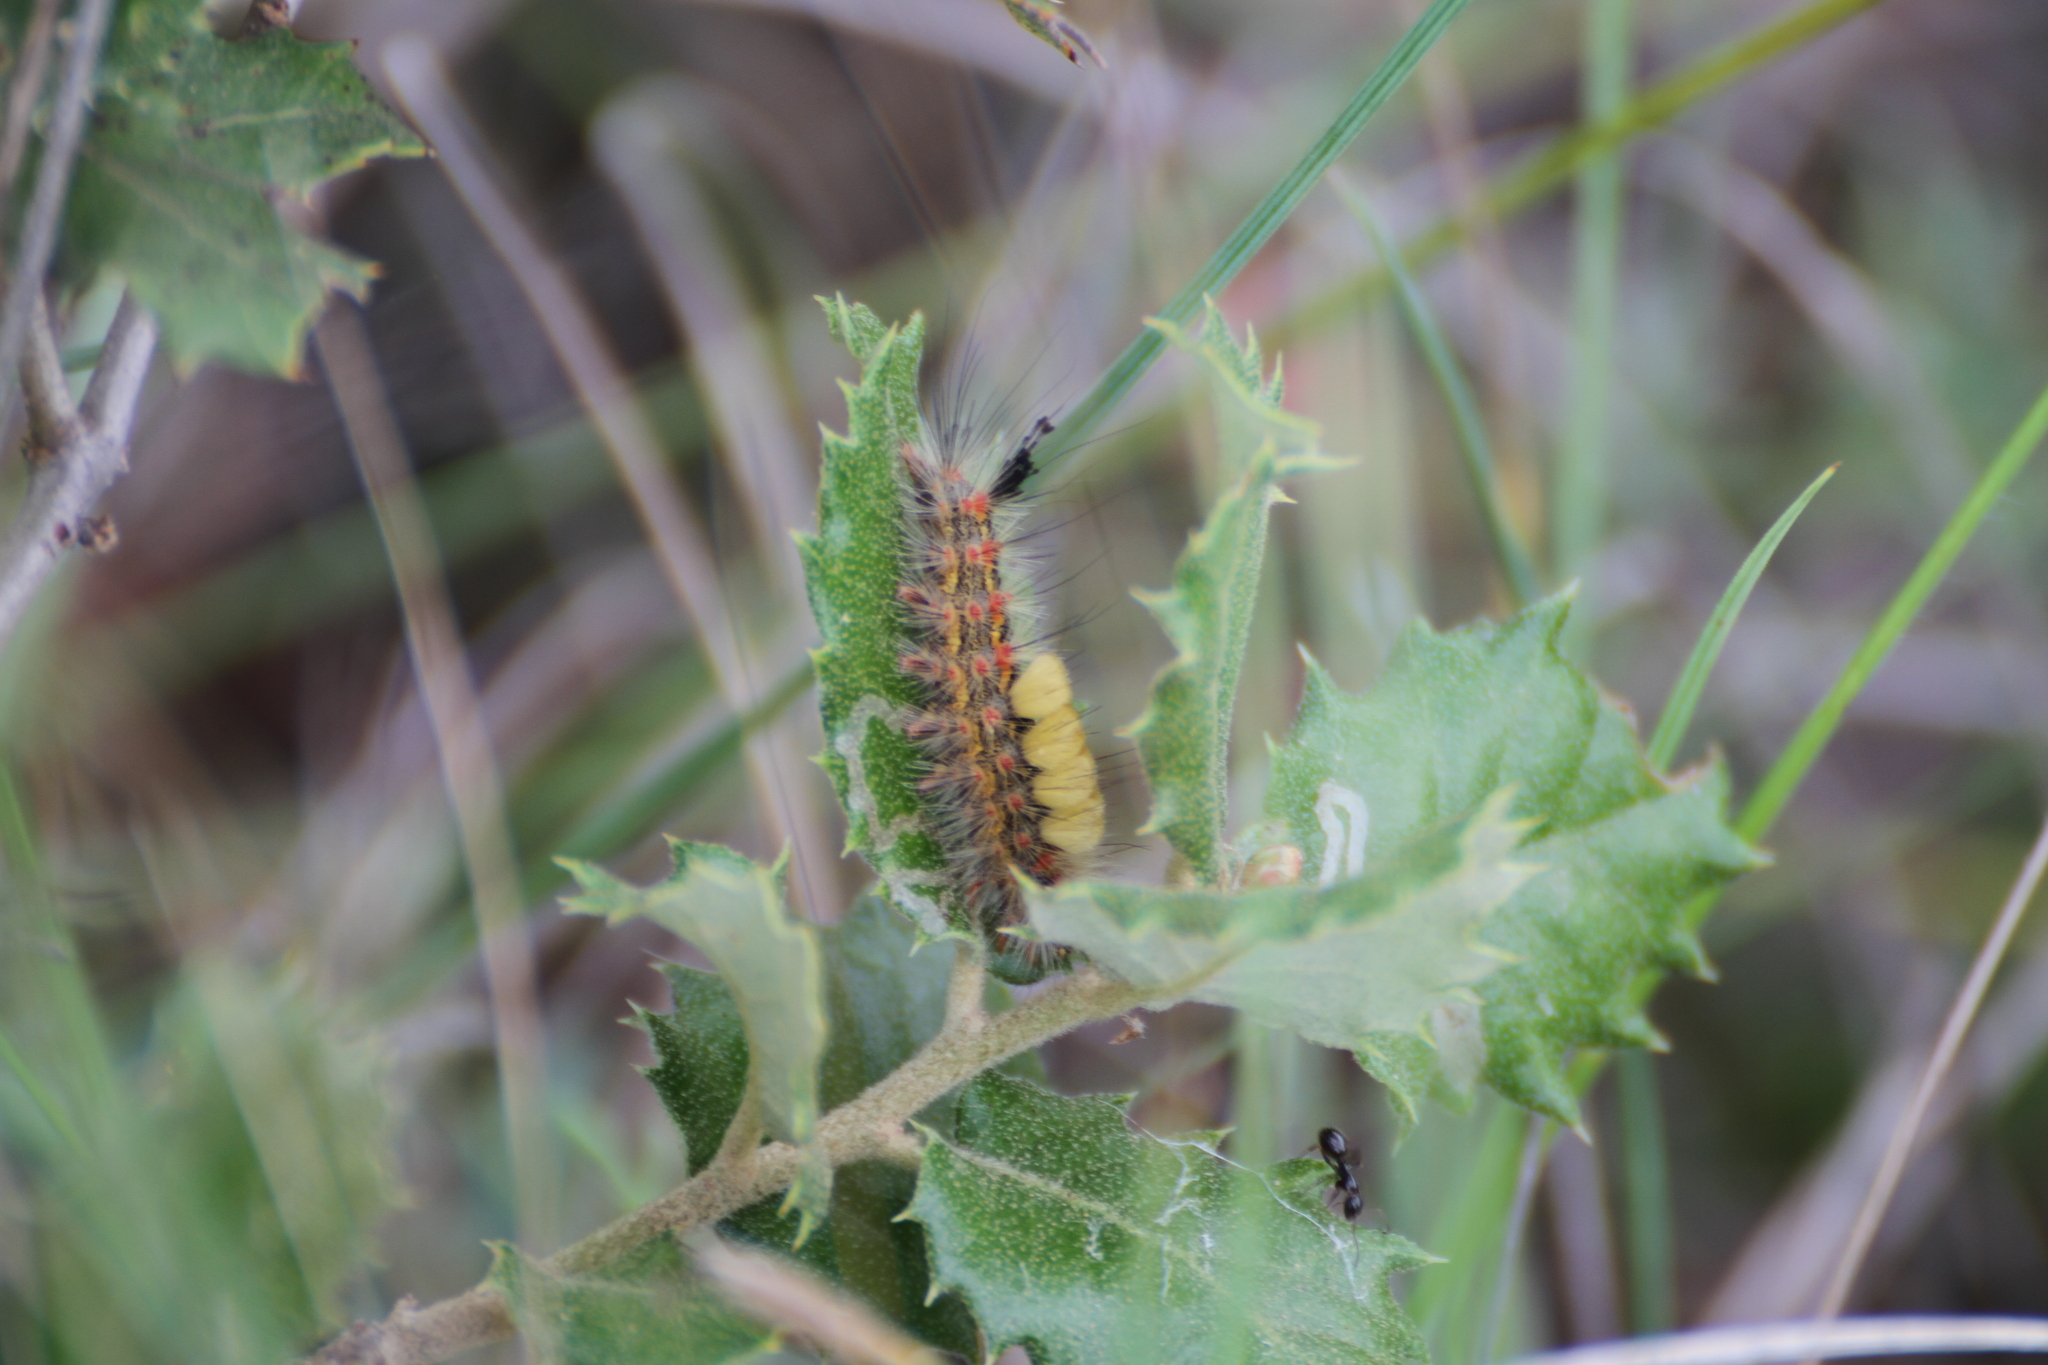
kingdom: Animalia
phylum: Arthropoda
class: Insecta
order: Lepidoptera
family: Erebidae
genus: Orgyia
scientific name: Orgyia antiqua
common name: Vapourer
